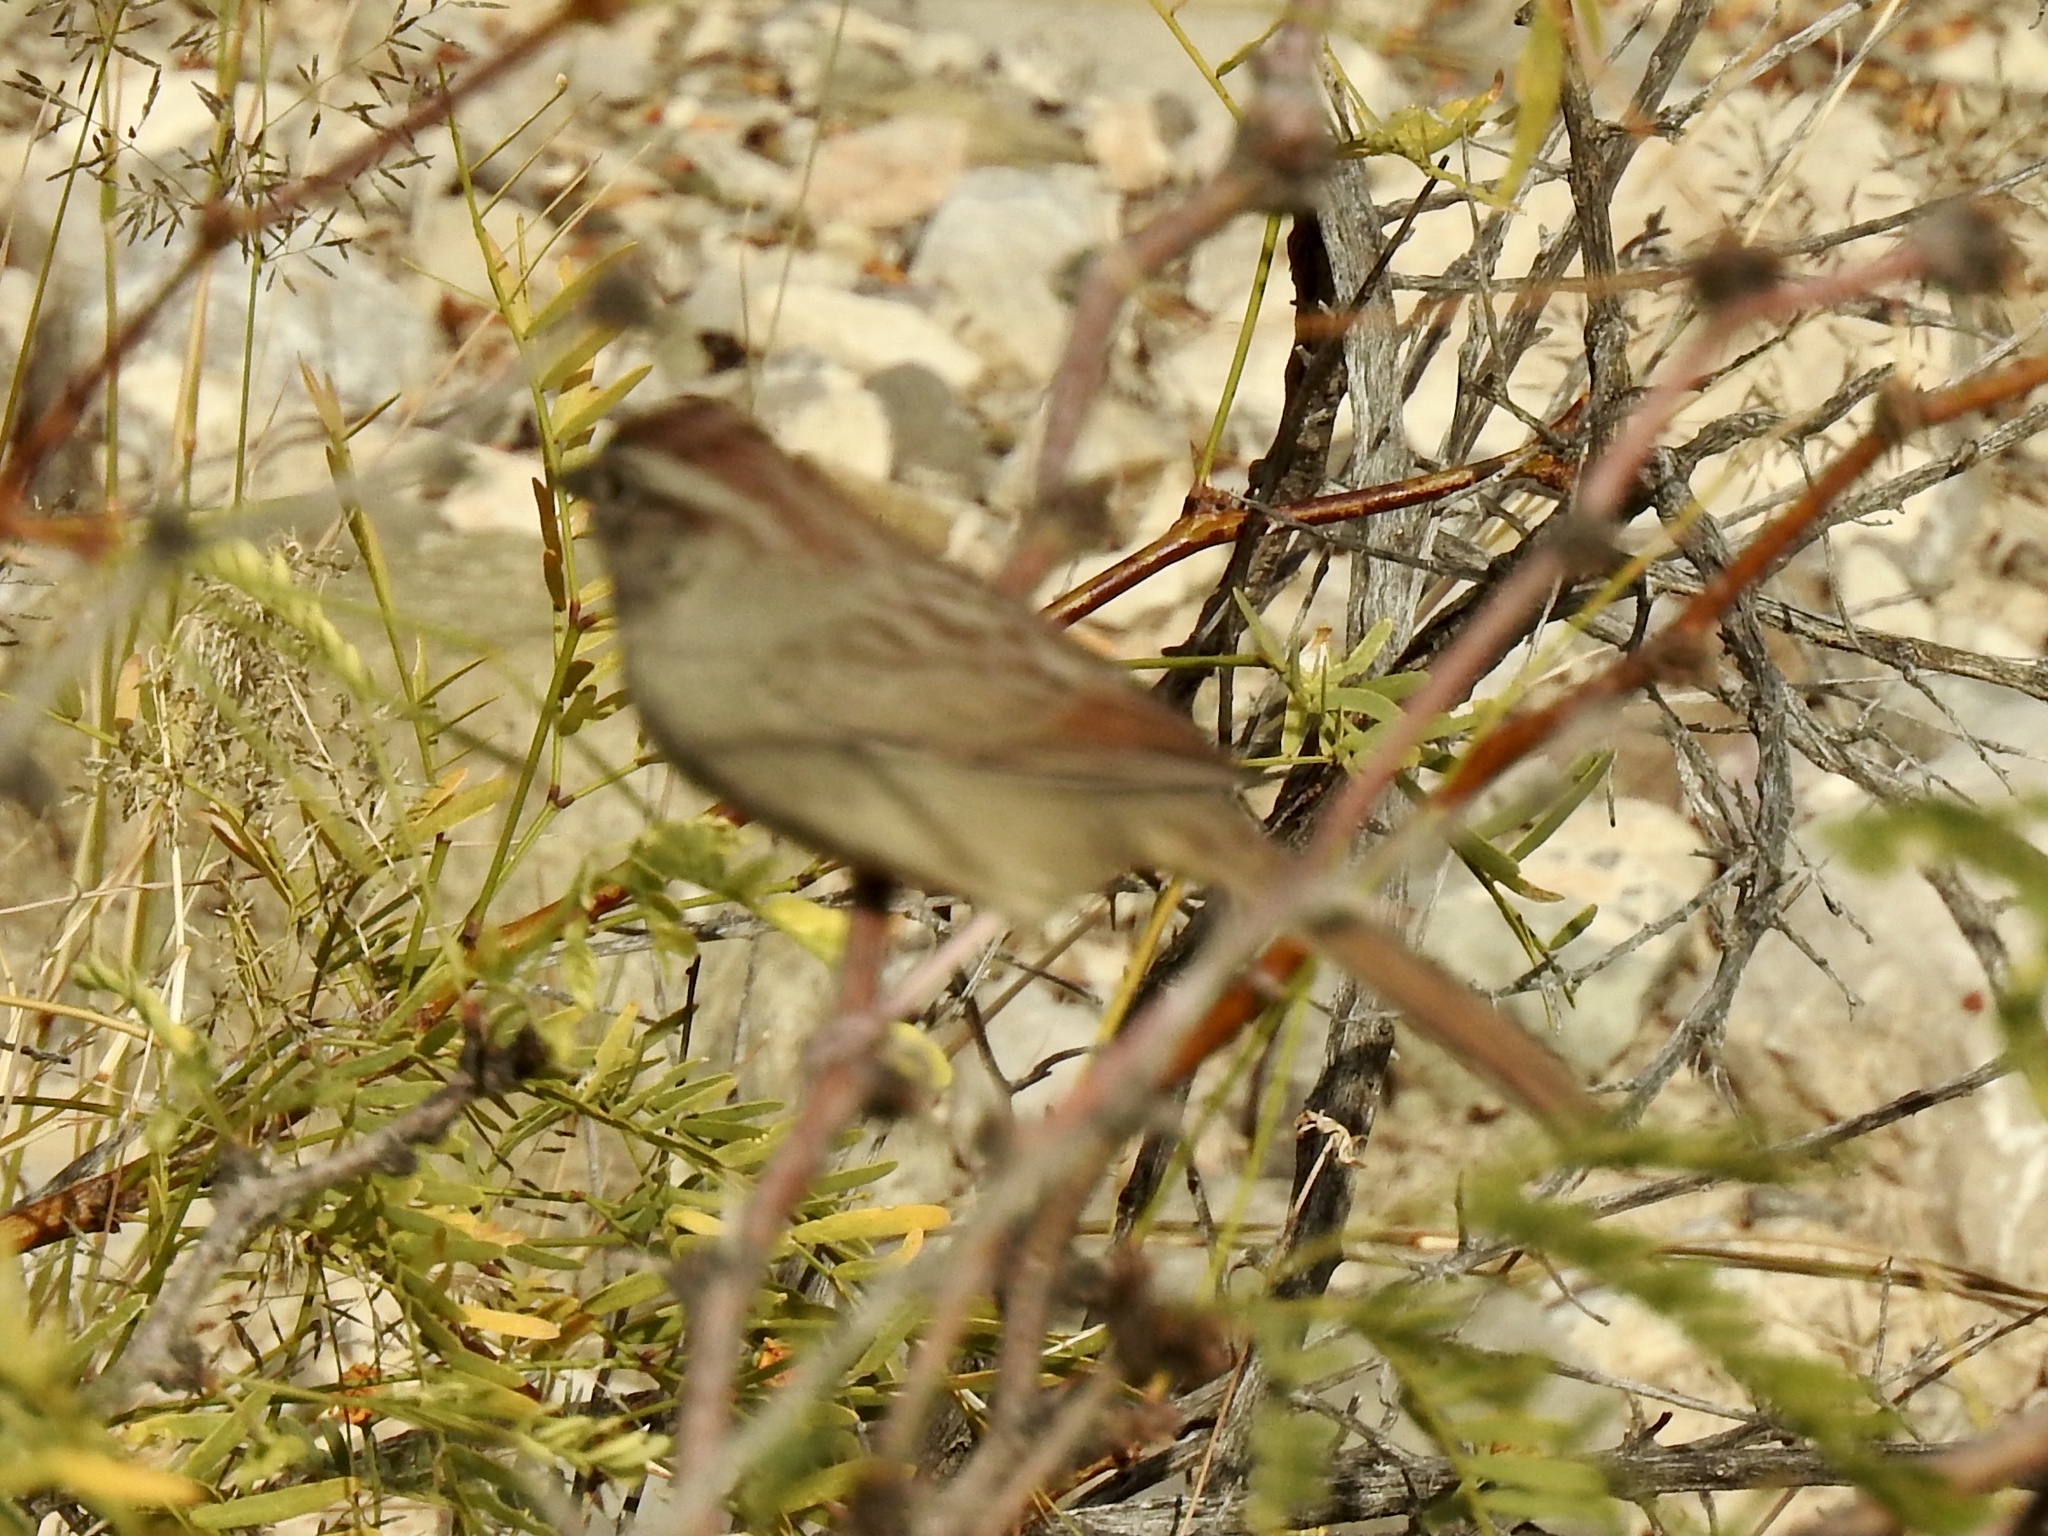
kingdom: Animalia
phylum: Chordata
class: Aves
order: Passeriformes
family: Passerellidae
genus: Aimophila
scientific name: Aimophila ruficeps
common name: Rufous-crowned sparrow
